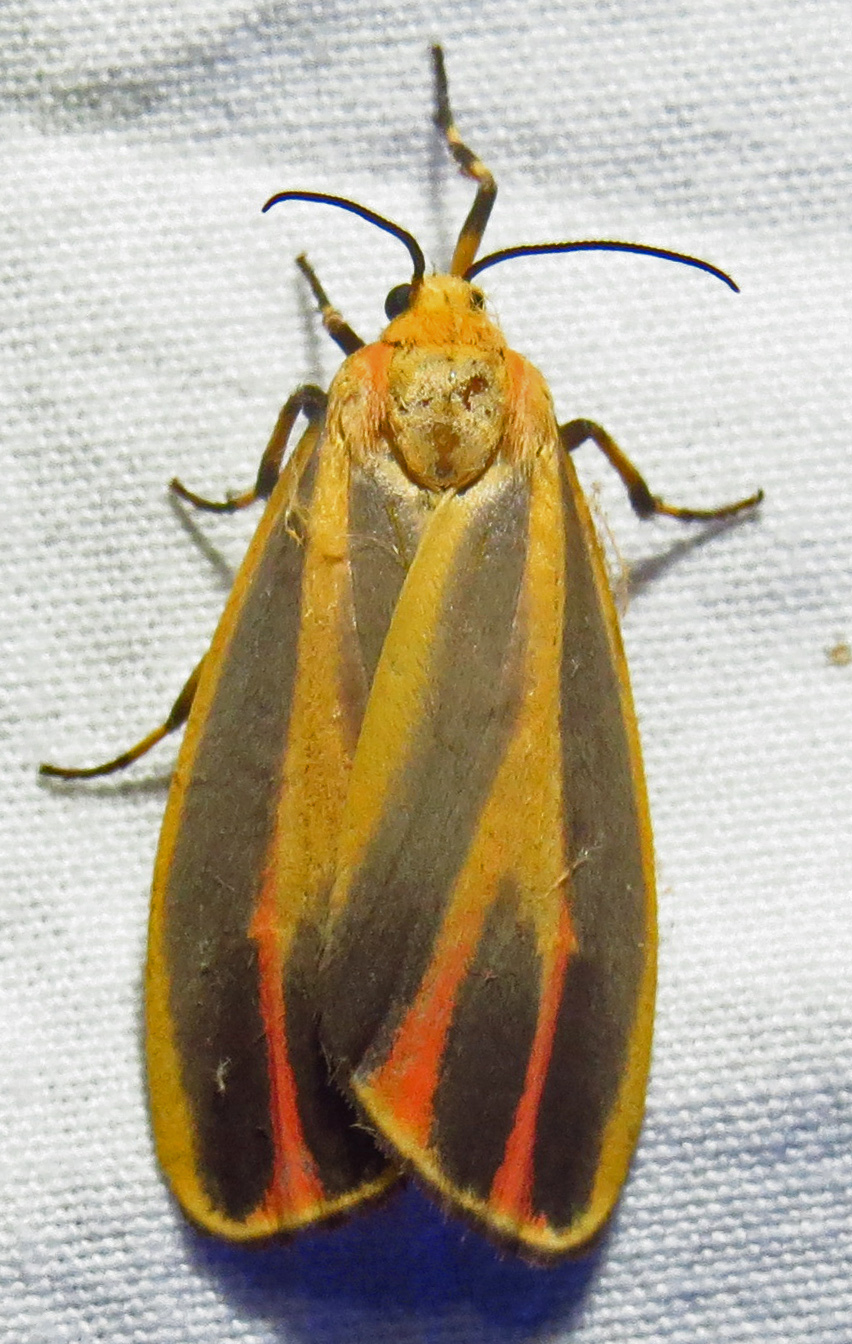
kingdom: Animalia
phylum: Arthropoda
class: Insecta
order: Lepidoptera
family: Erebidae
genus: Hypoprepia
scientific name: Hypoprepia fucosa
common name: Painted lichen moth
